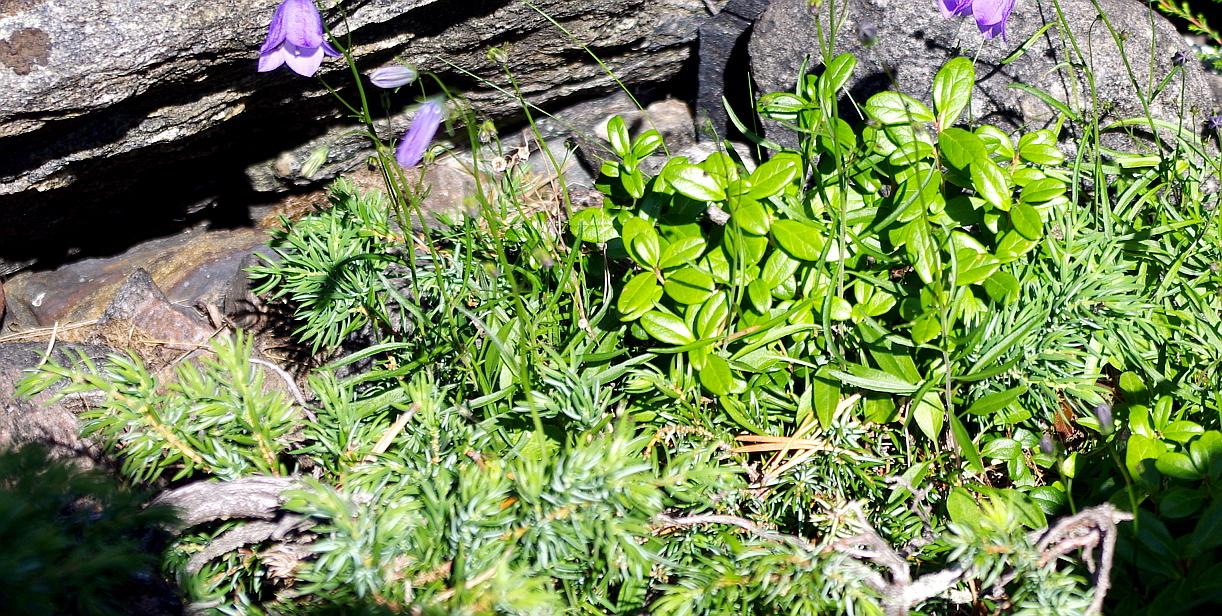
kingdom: Plantae
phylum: Tracheophyta
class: Pinopsida
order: Pinales
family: Cupressaceae
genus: Juniperus
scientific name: Juniperus communis
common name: Common juniper
